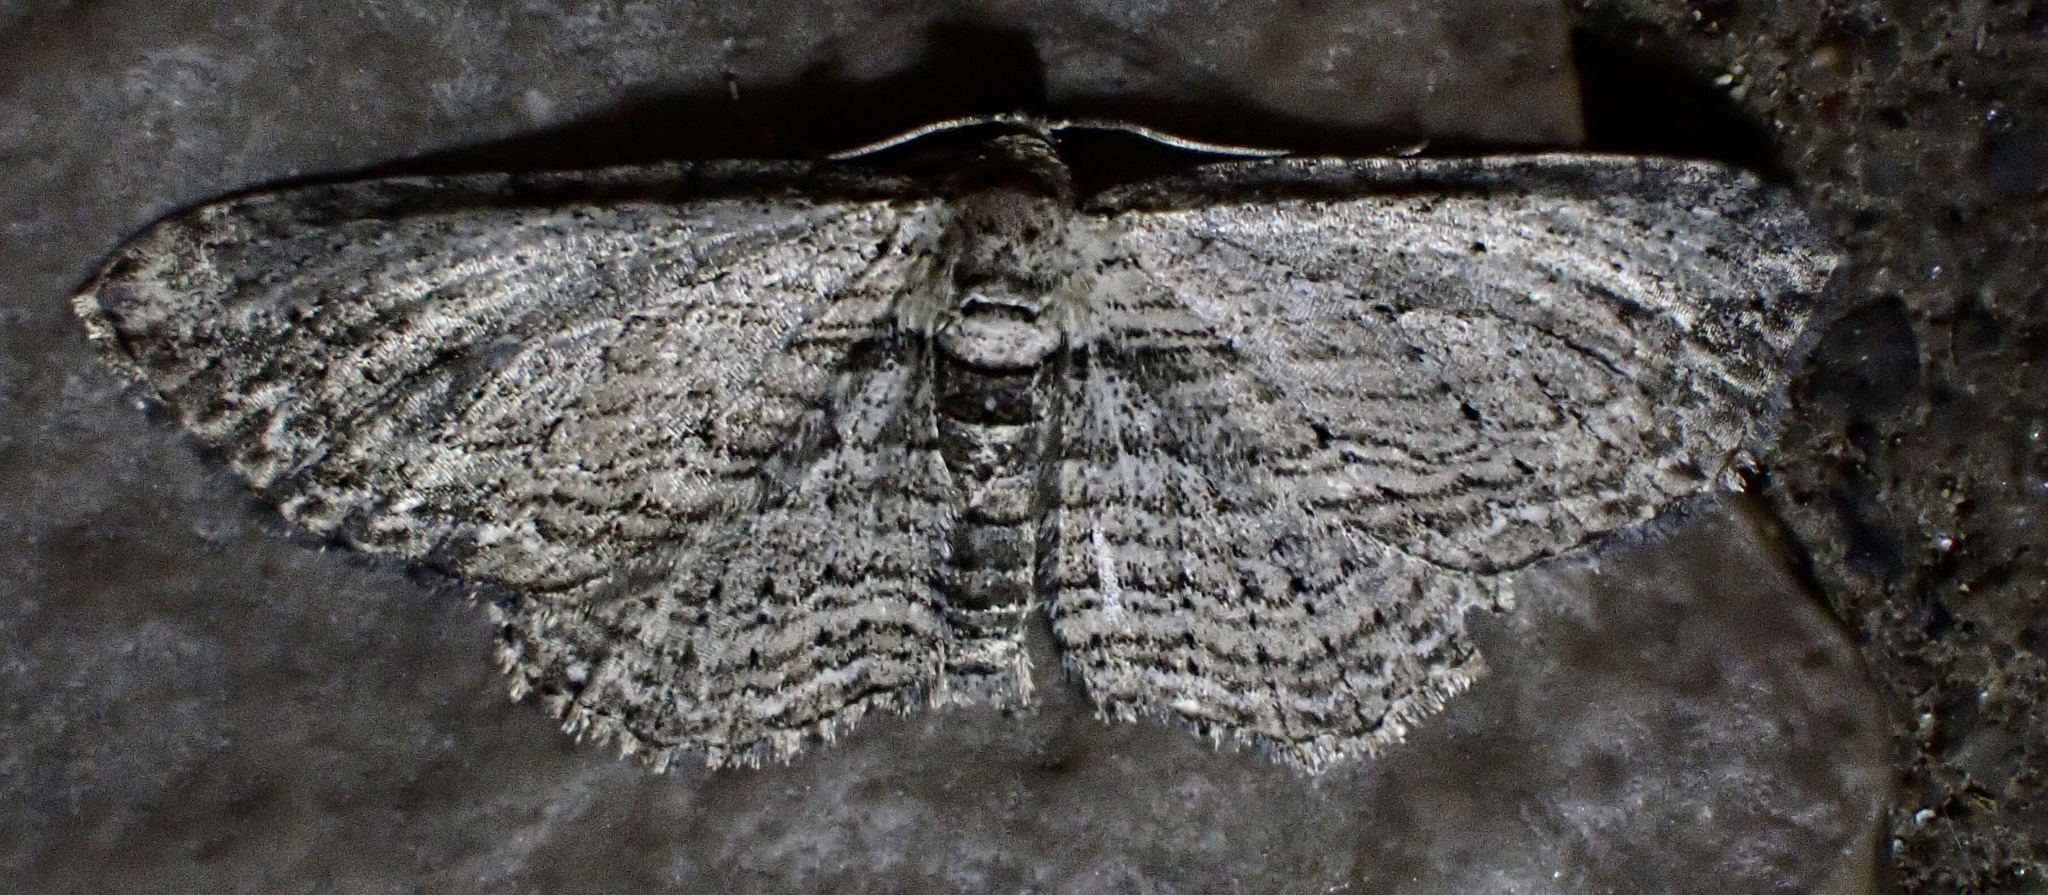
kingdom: Animalia
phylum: Arthropoda
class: Insecta
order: Lepidoptera
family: Geometridae
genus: Horisme
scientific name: Horisme intestinata
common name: Brown bark carpet
